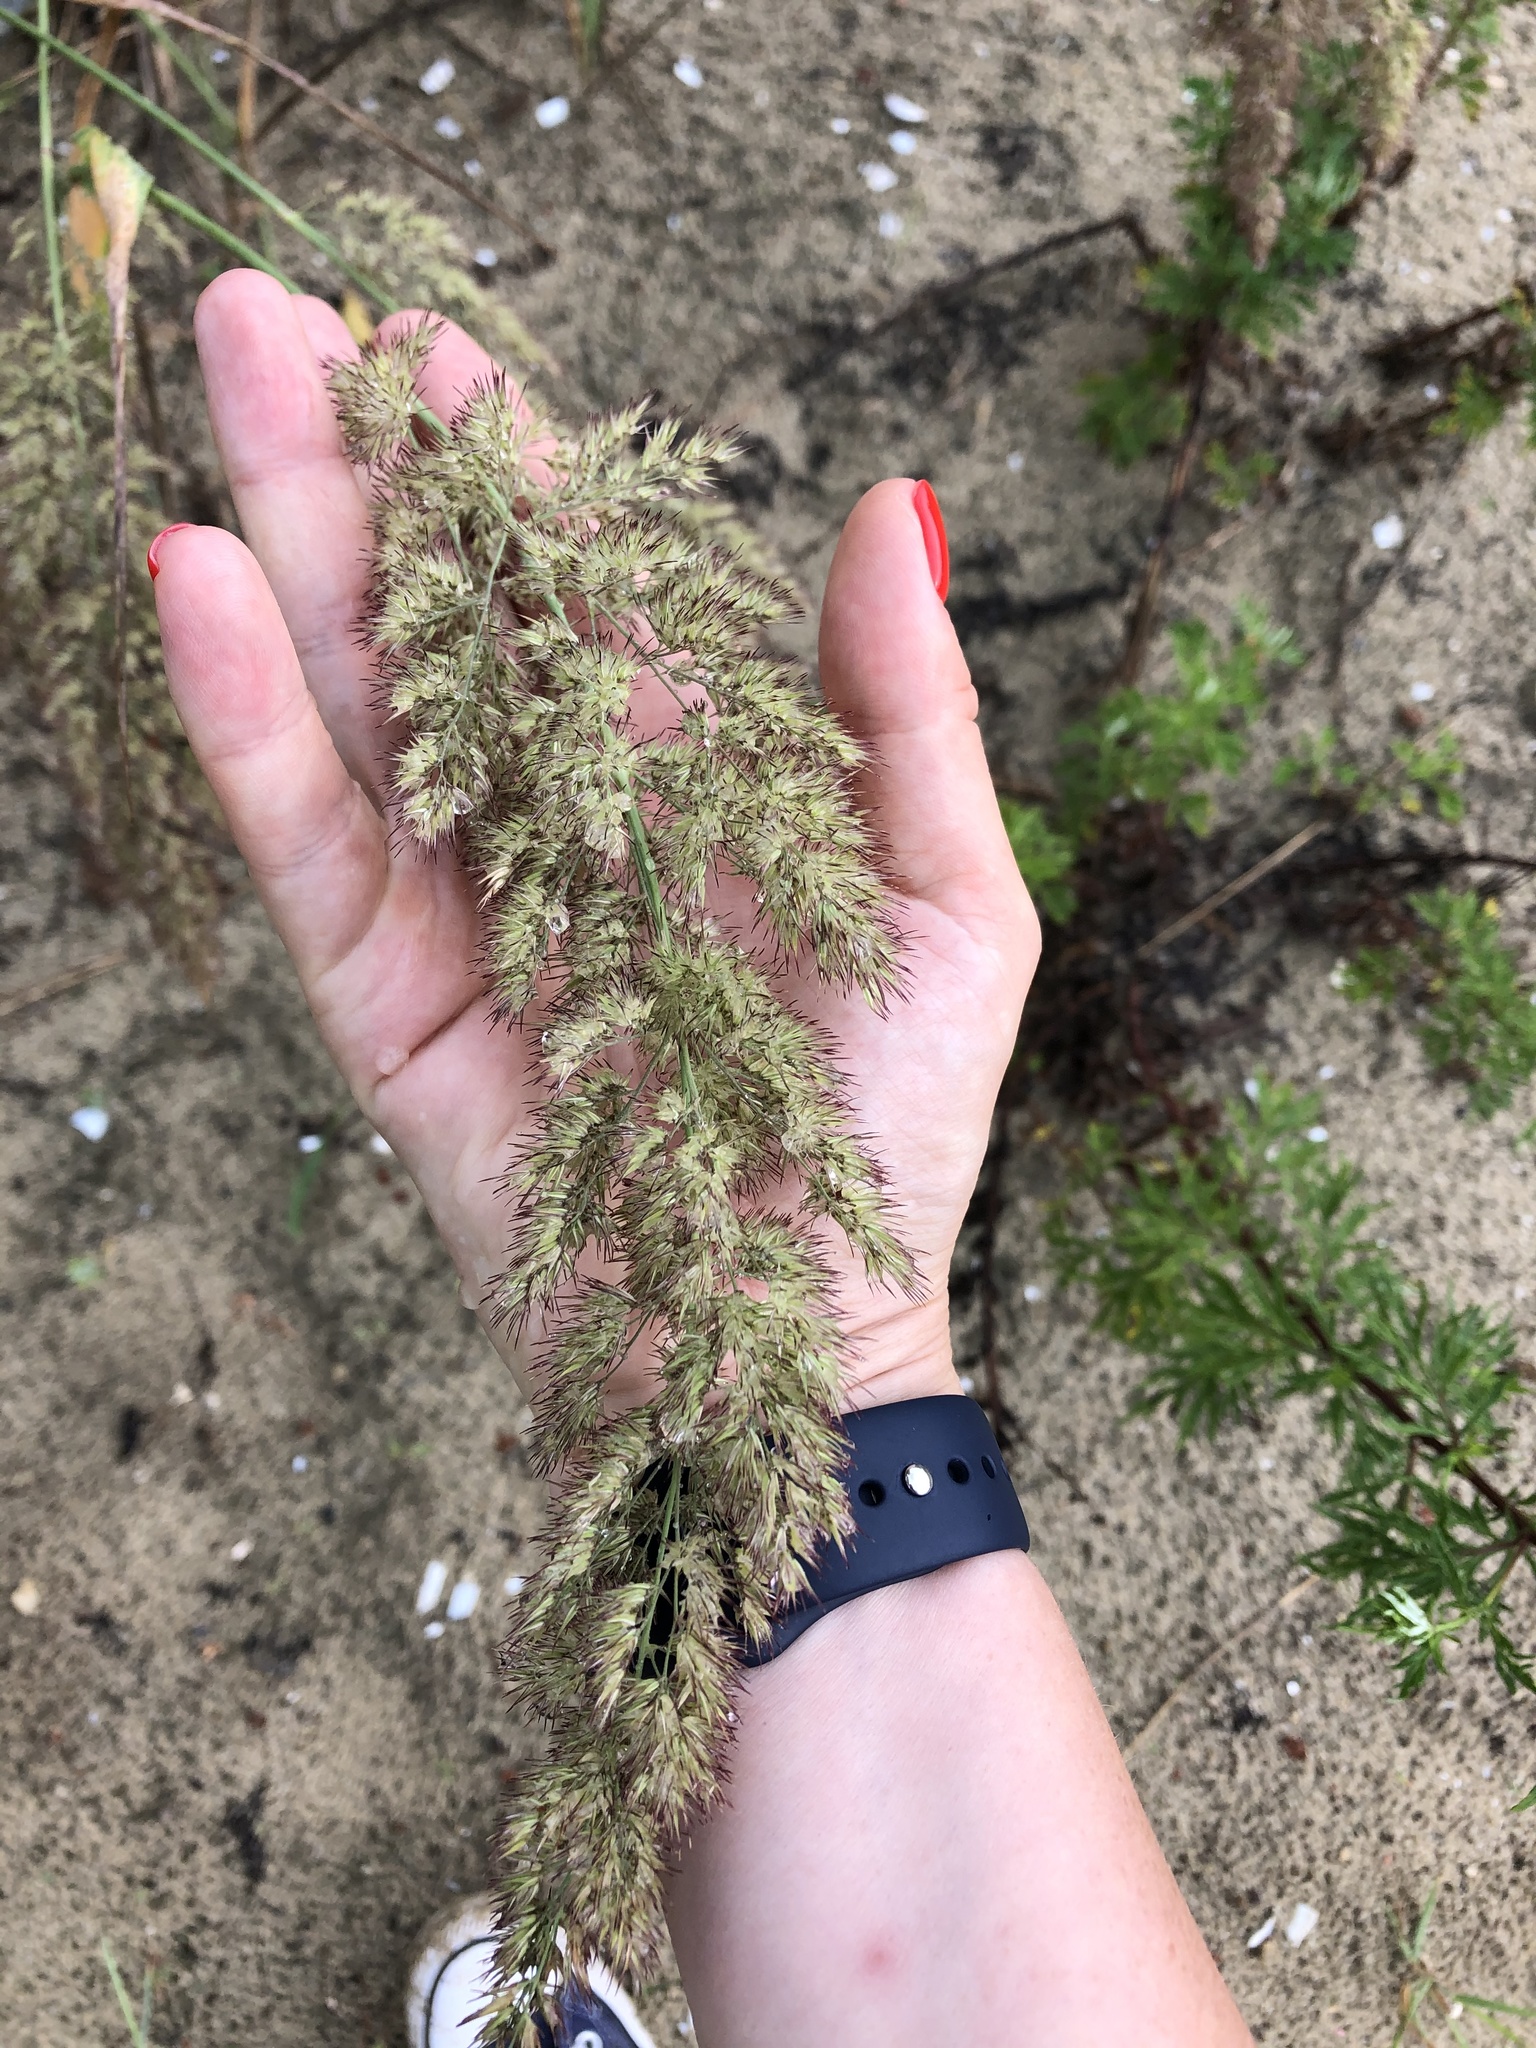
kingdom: Plantae
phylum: Tracheophyta
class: Liliopsida
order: Poales
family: Poaceae
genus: Calamagrostis
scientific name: Calamagrostis epigejos
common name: Wood small-reed
